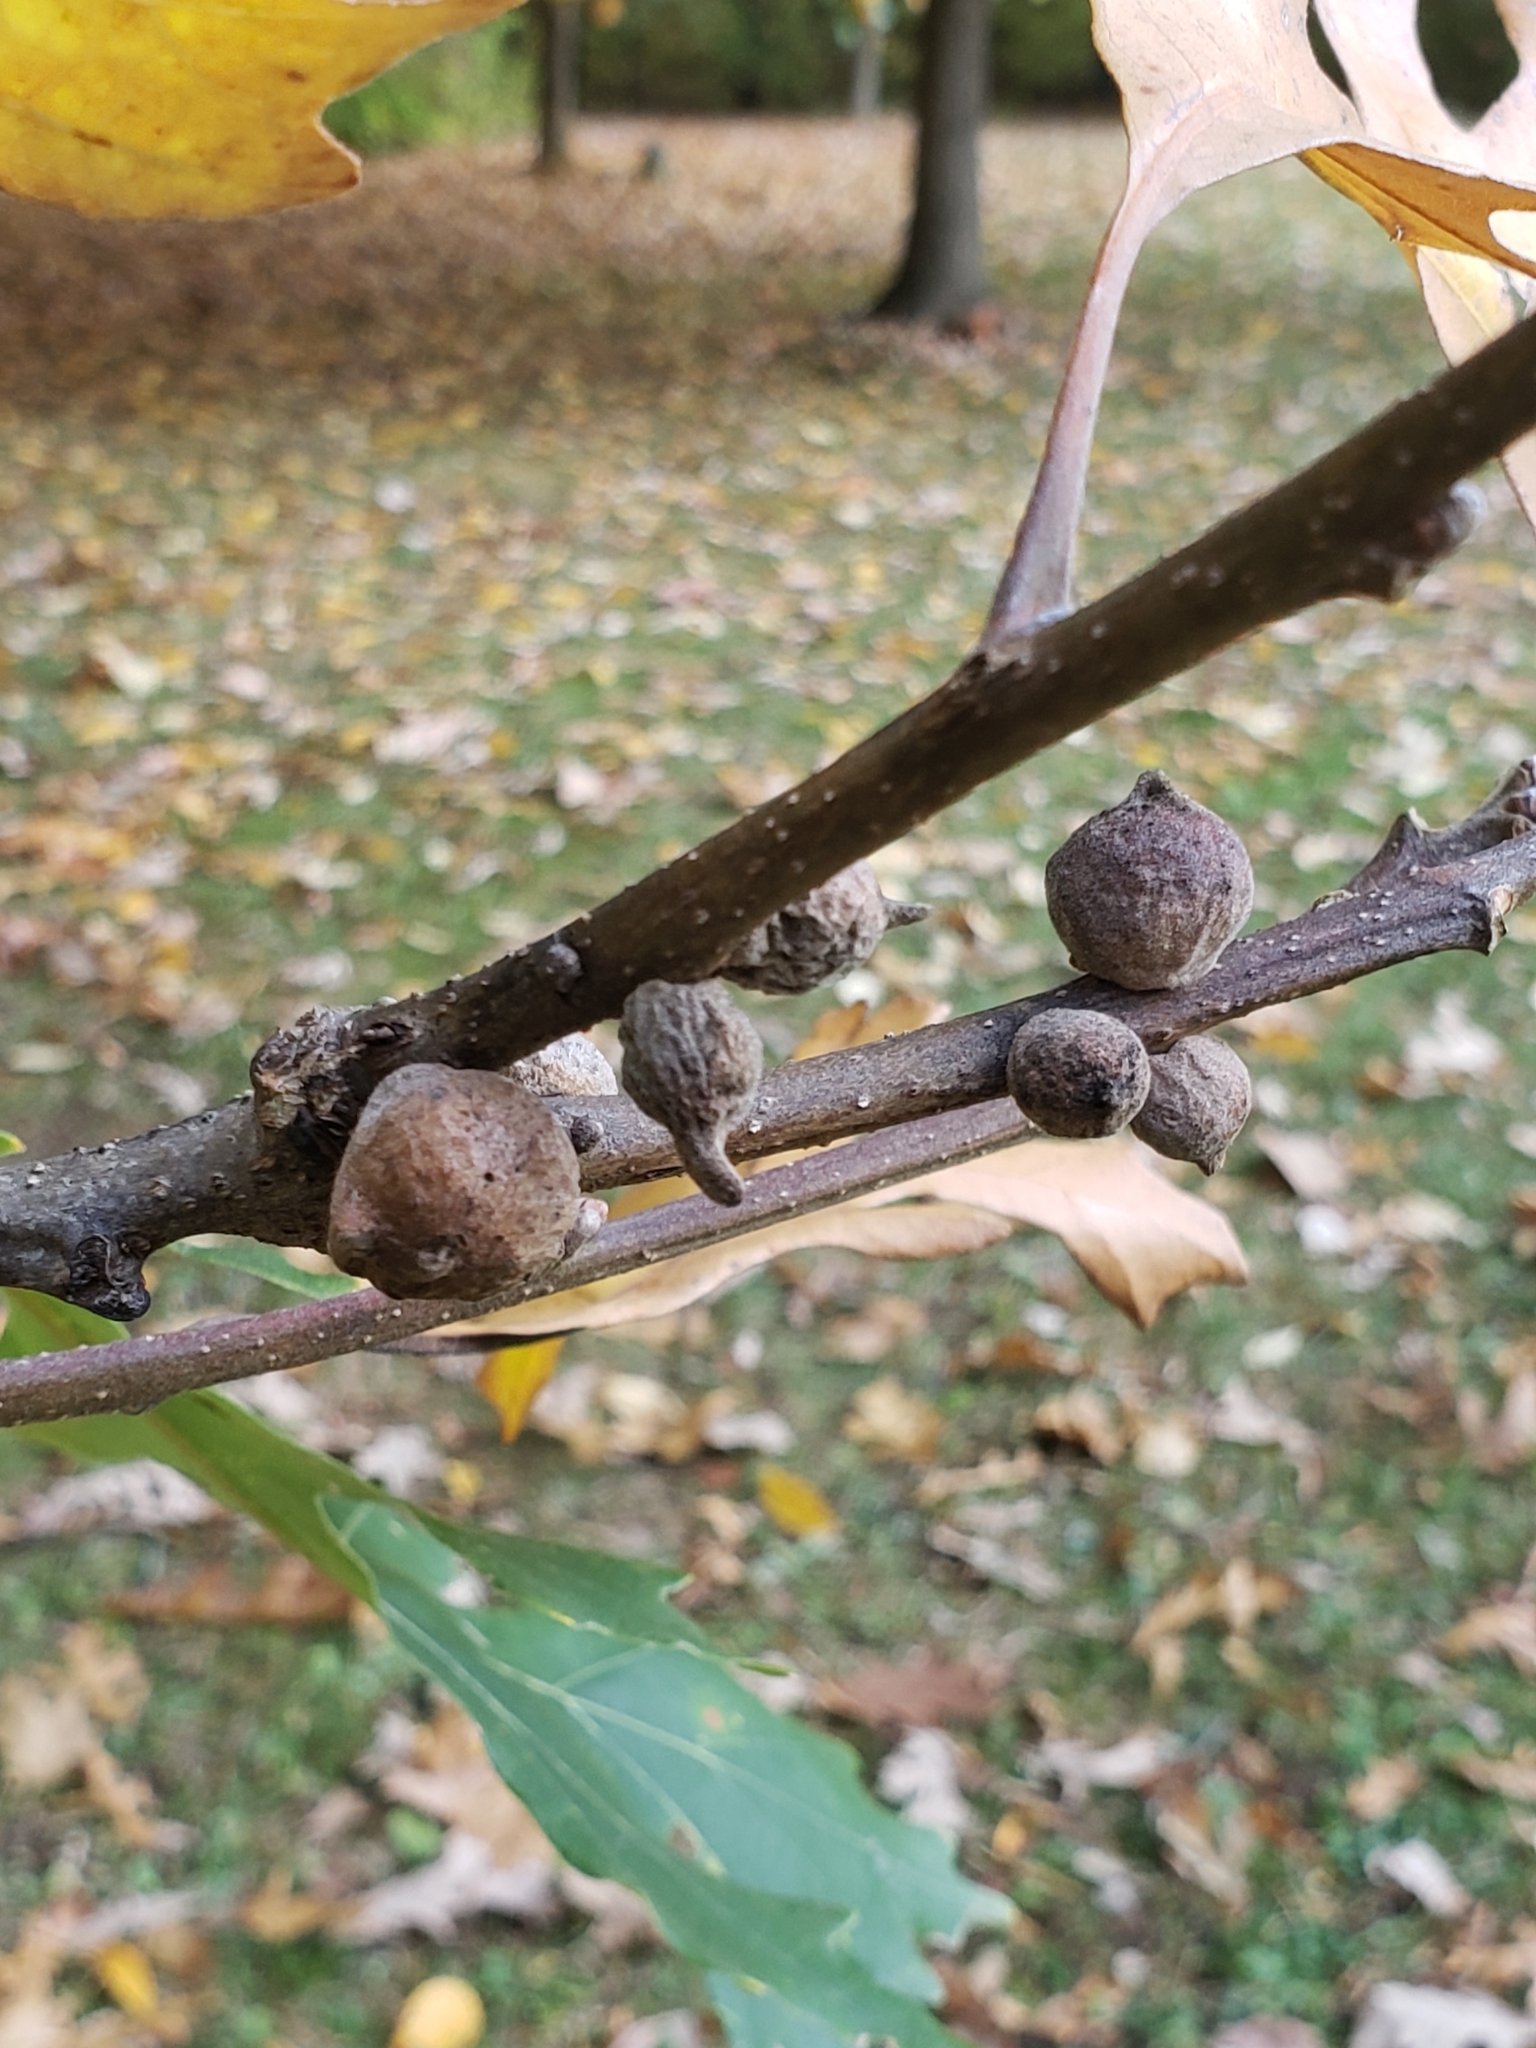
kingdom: Animalia
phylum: Arthropoda
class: Insecta
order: Hymenoptera
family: Cynipidae
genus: Disholcaspis
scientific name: Disholcaspis
